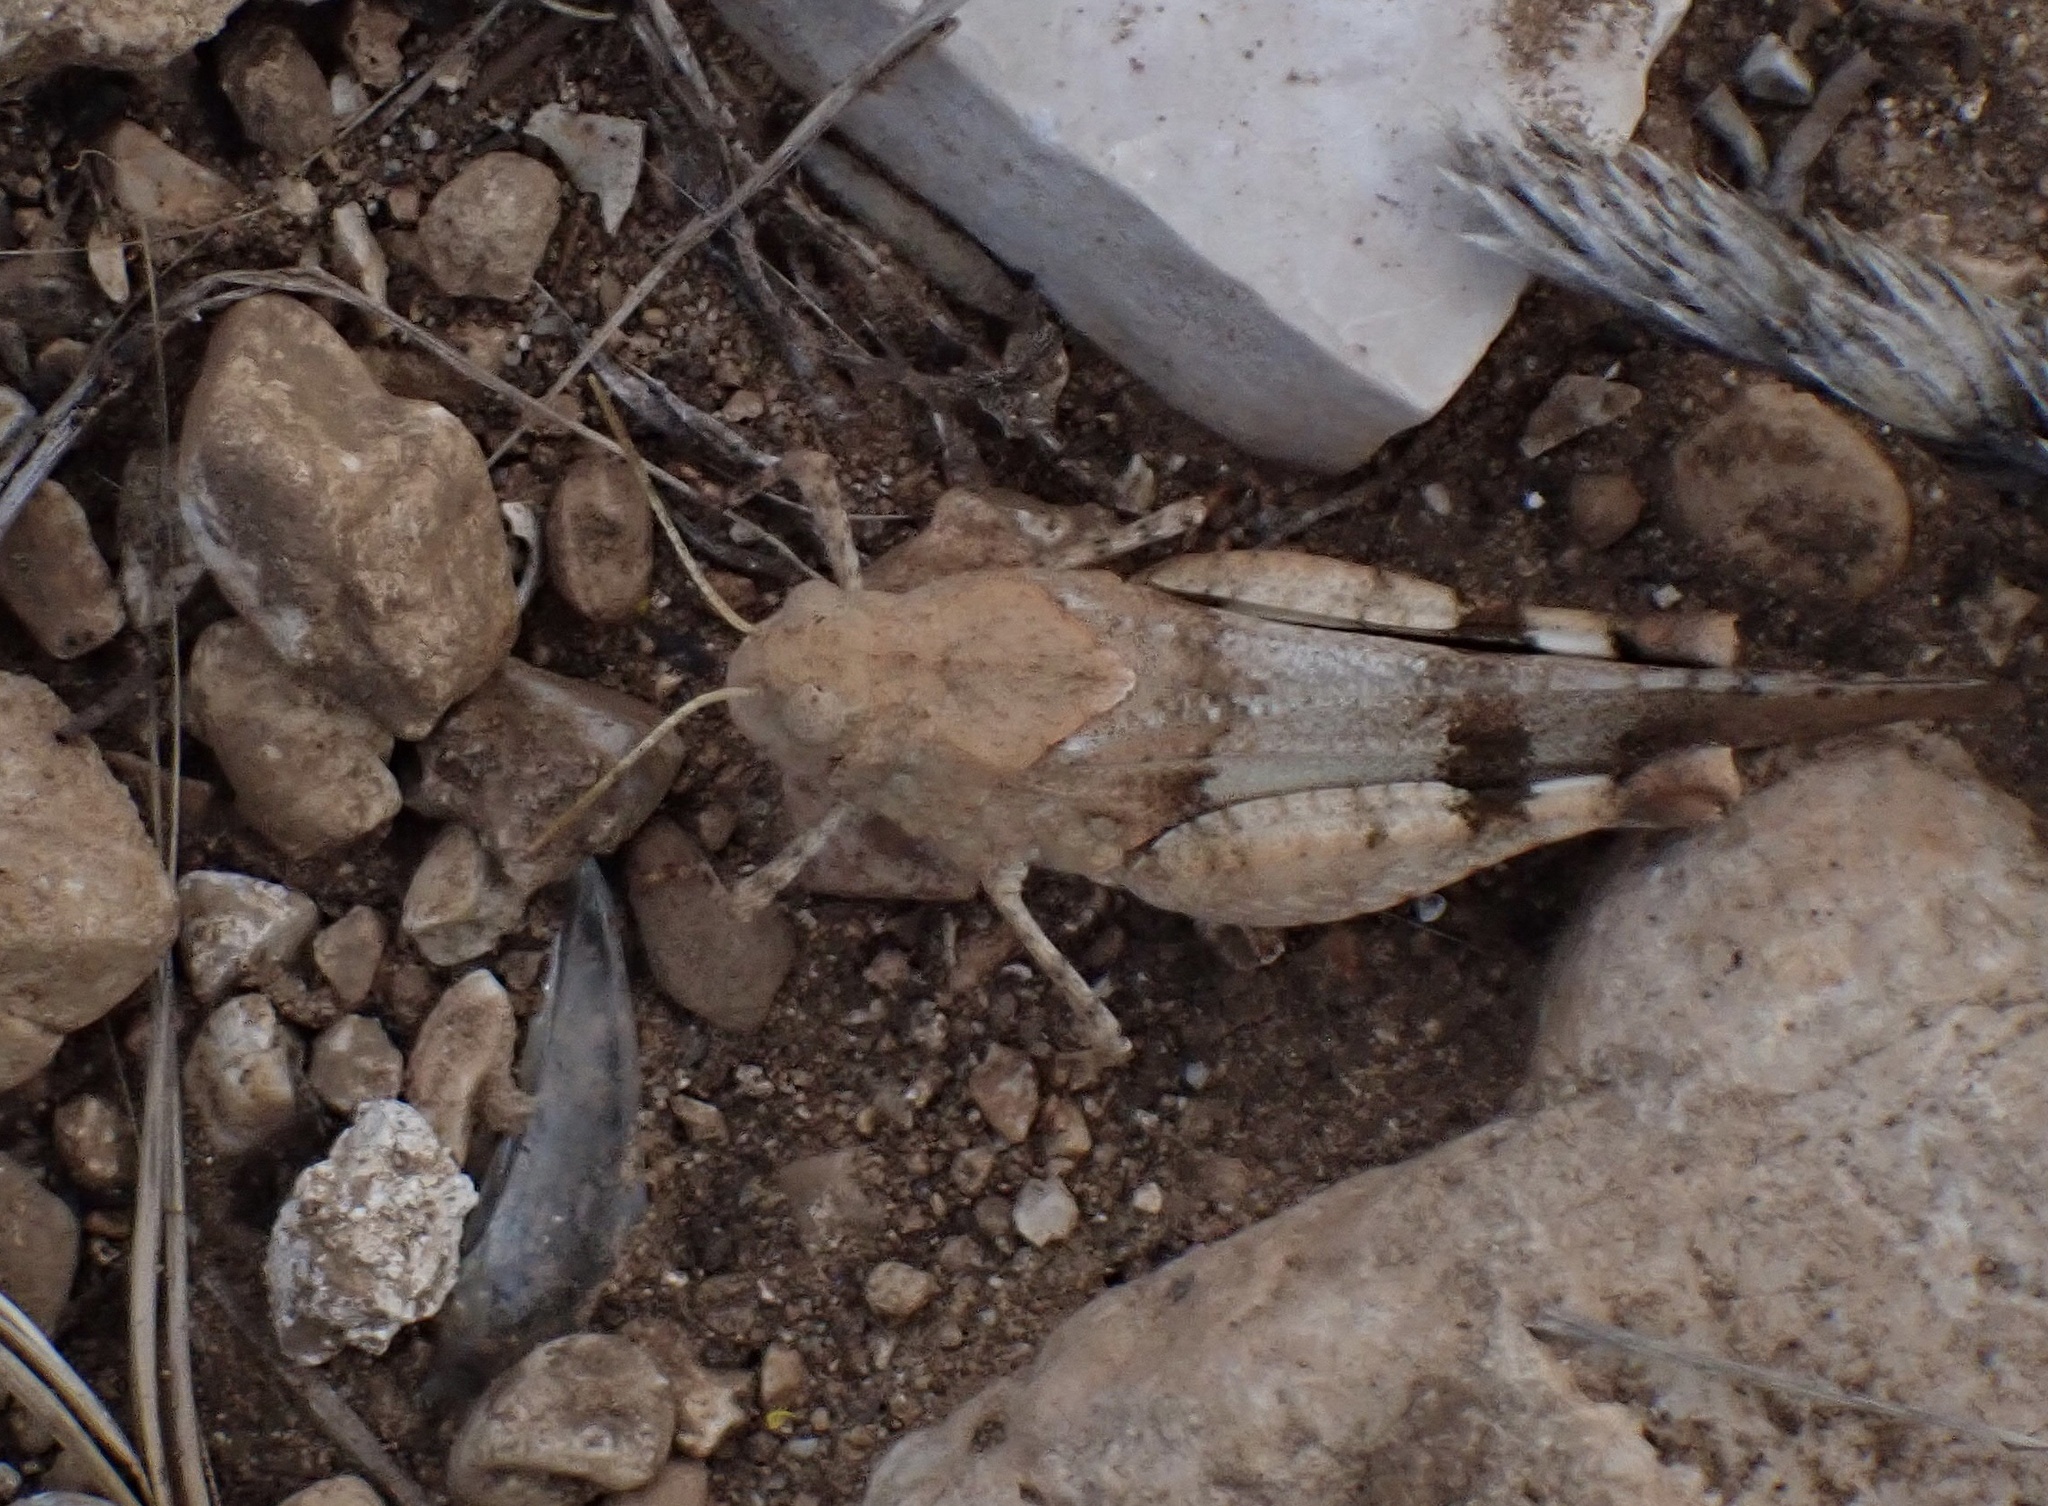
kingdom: Animalia
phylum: Arthropoda
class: Insecta
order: Orthoptera
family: Acrididae
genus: Oedipoda
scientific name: Oedipoda caerulescens
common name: Blue-winged grasshopper
